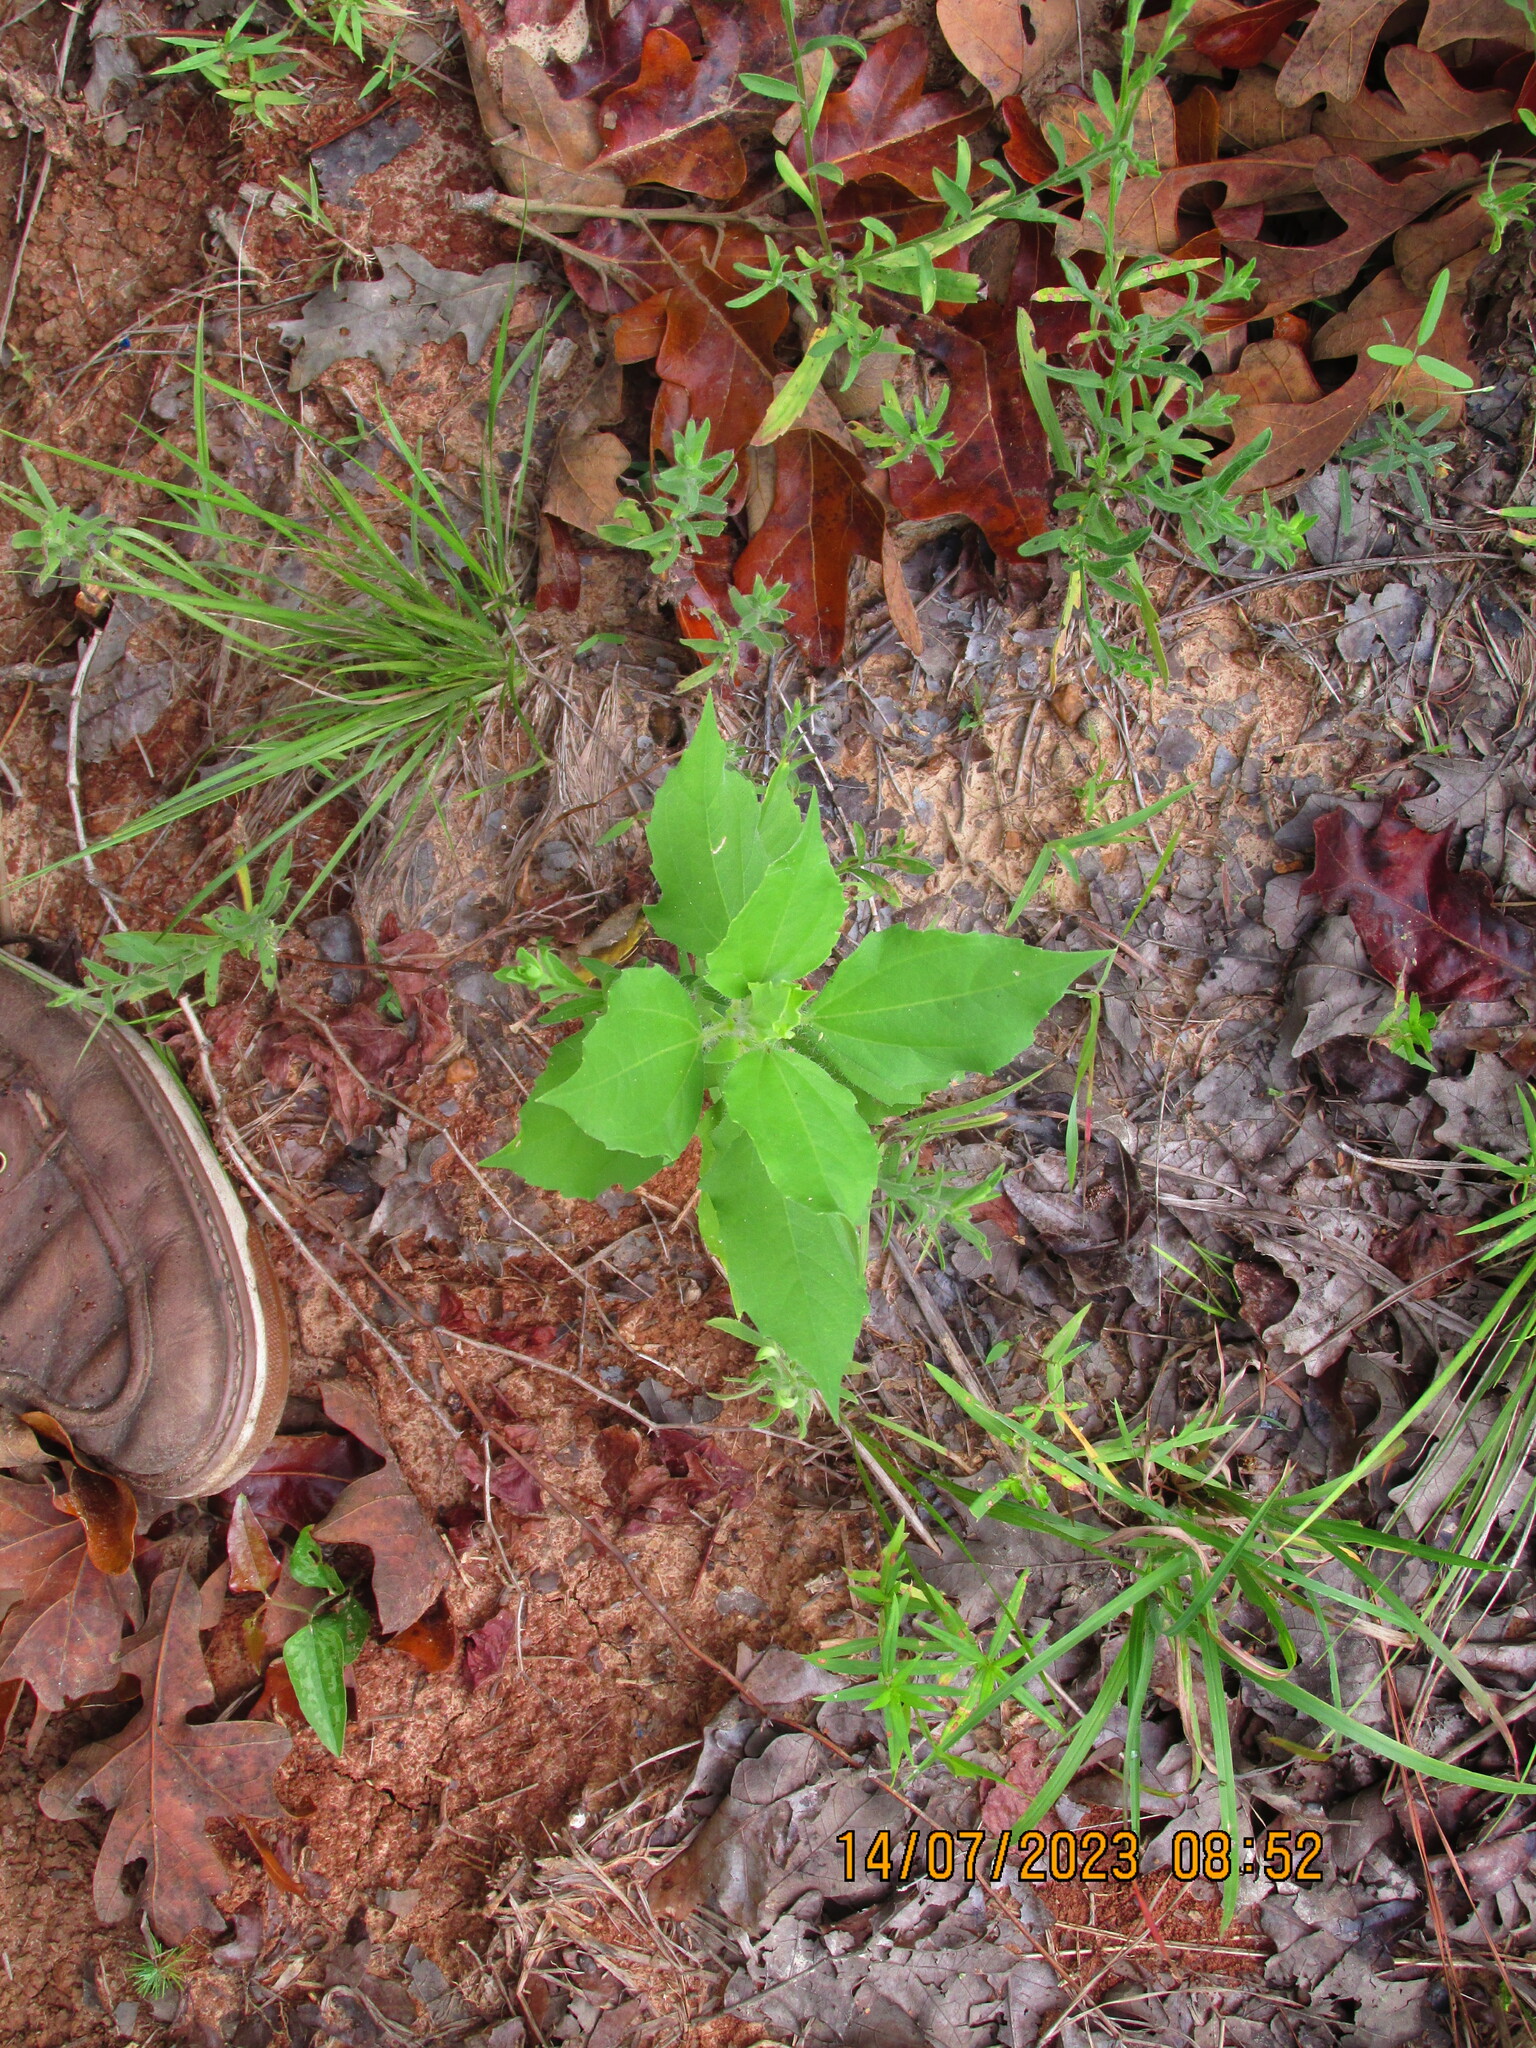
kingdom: Plantae
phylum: Tracheophyta
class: Magnoliopsida
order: Asterales
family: Asteraceae
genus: Iva
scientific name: Iva annua
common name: Marsh-elder
